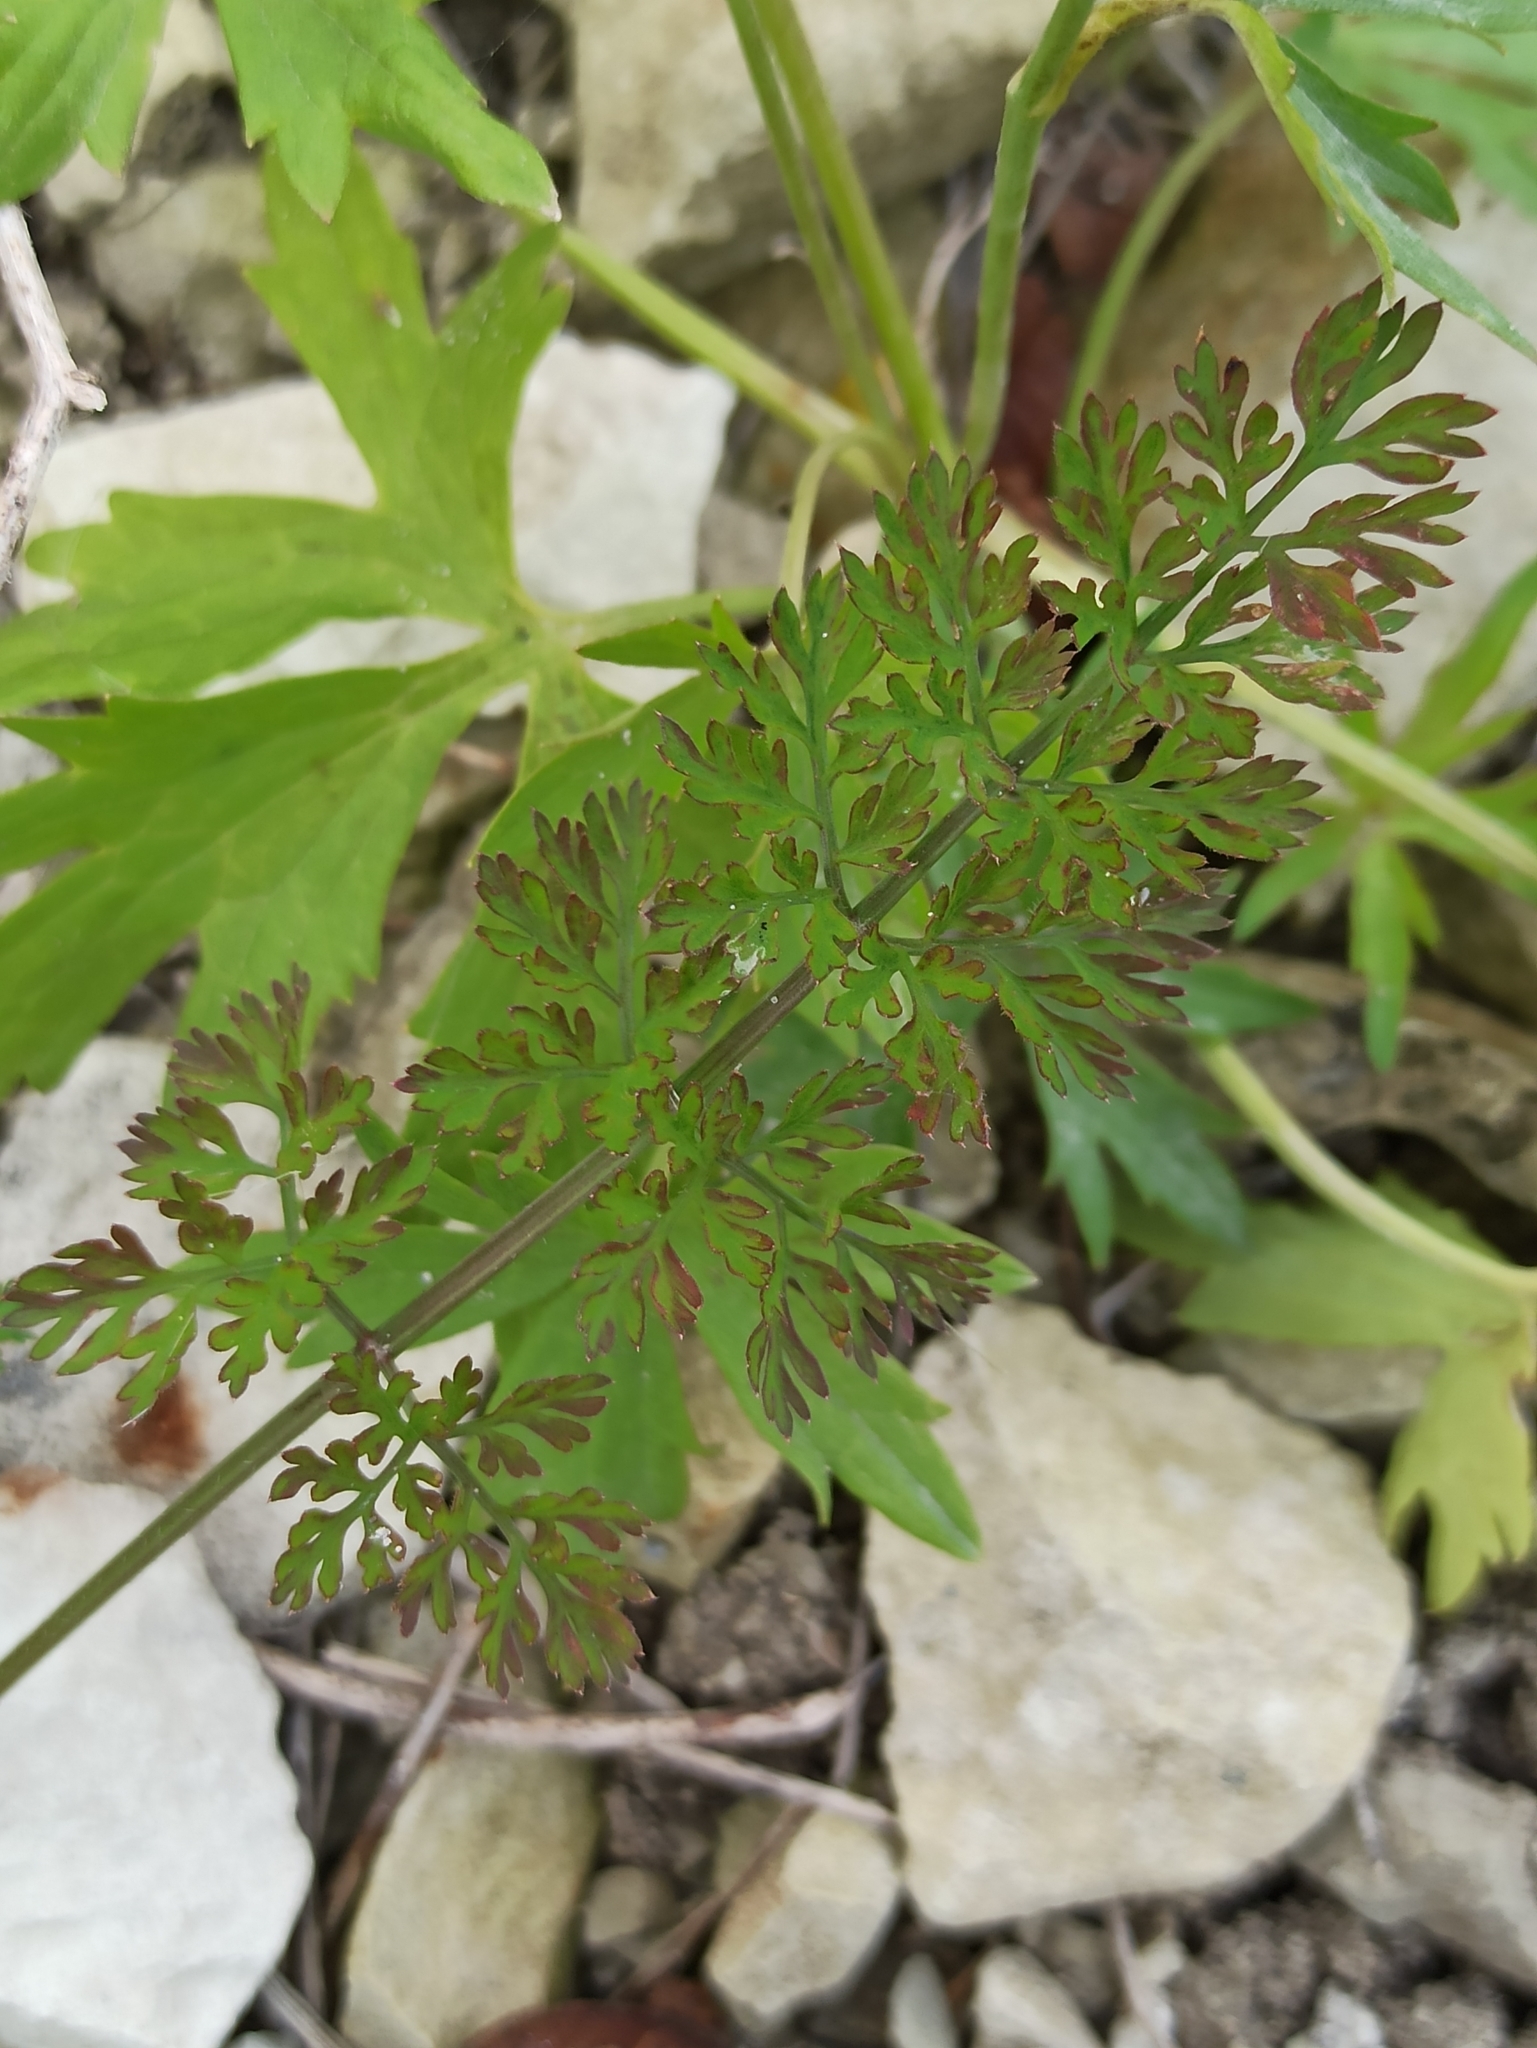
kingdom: Plantae
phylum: Tracheophyta
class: Magnoliopsida
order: Apiales
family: Apiaceae
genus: Daucus
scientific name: Daucus carota
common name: Wild carrot
